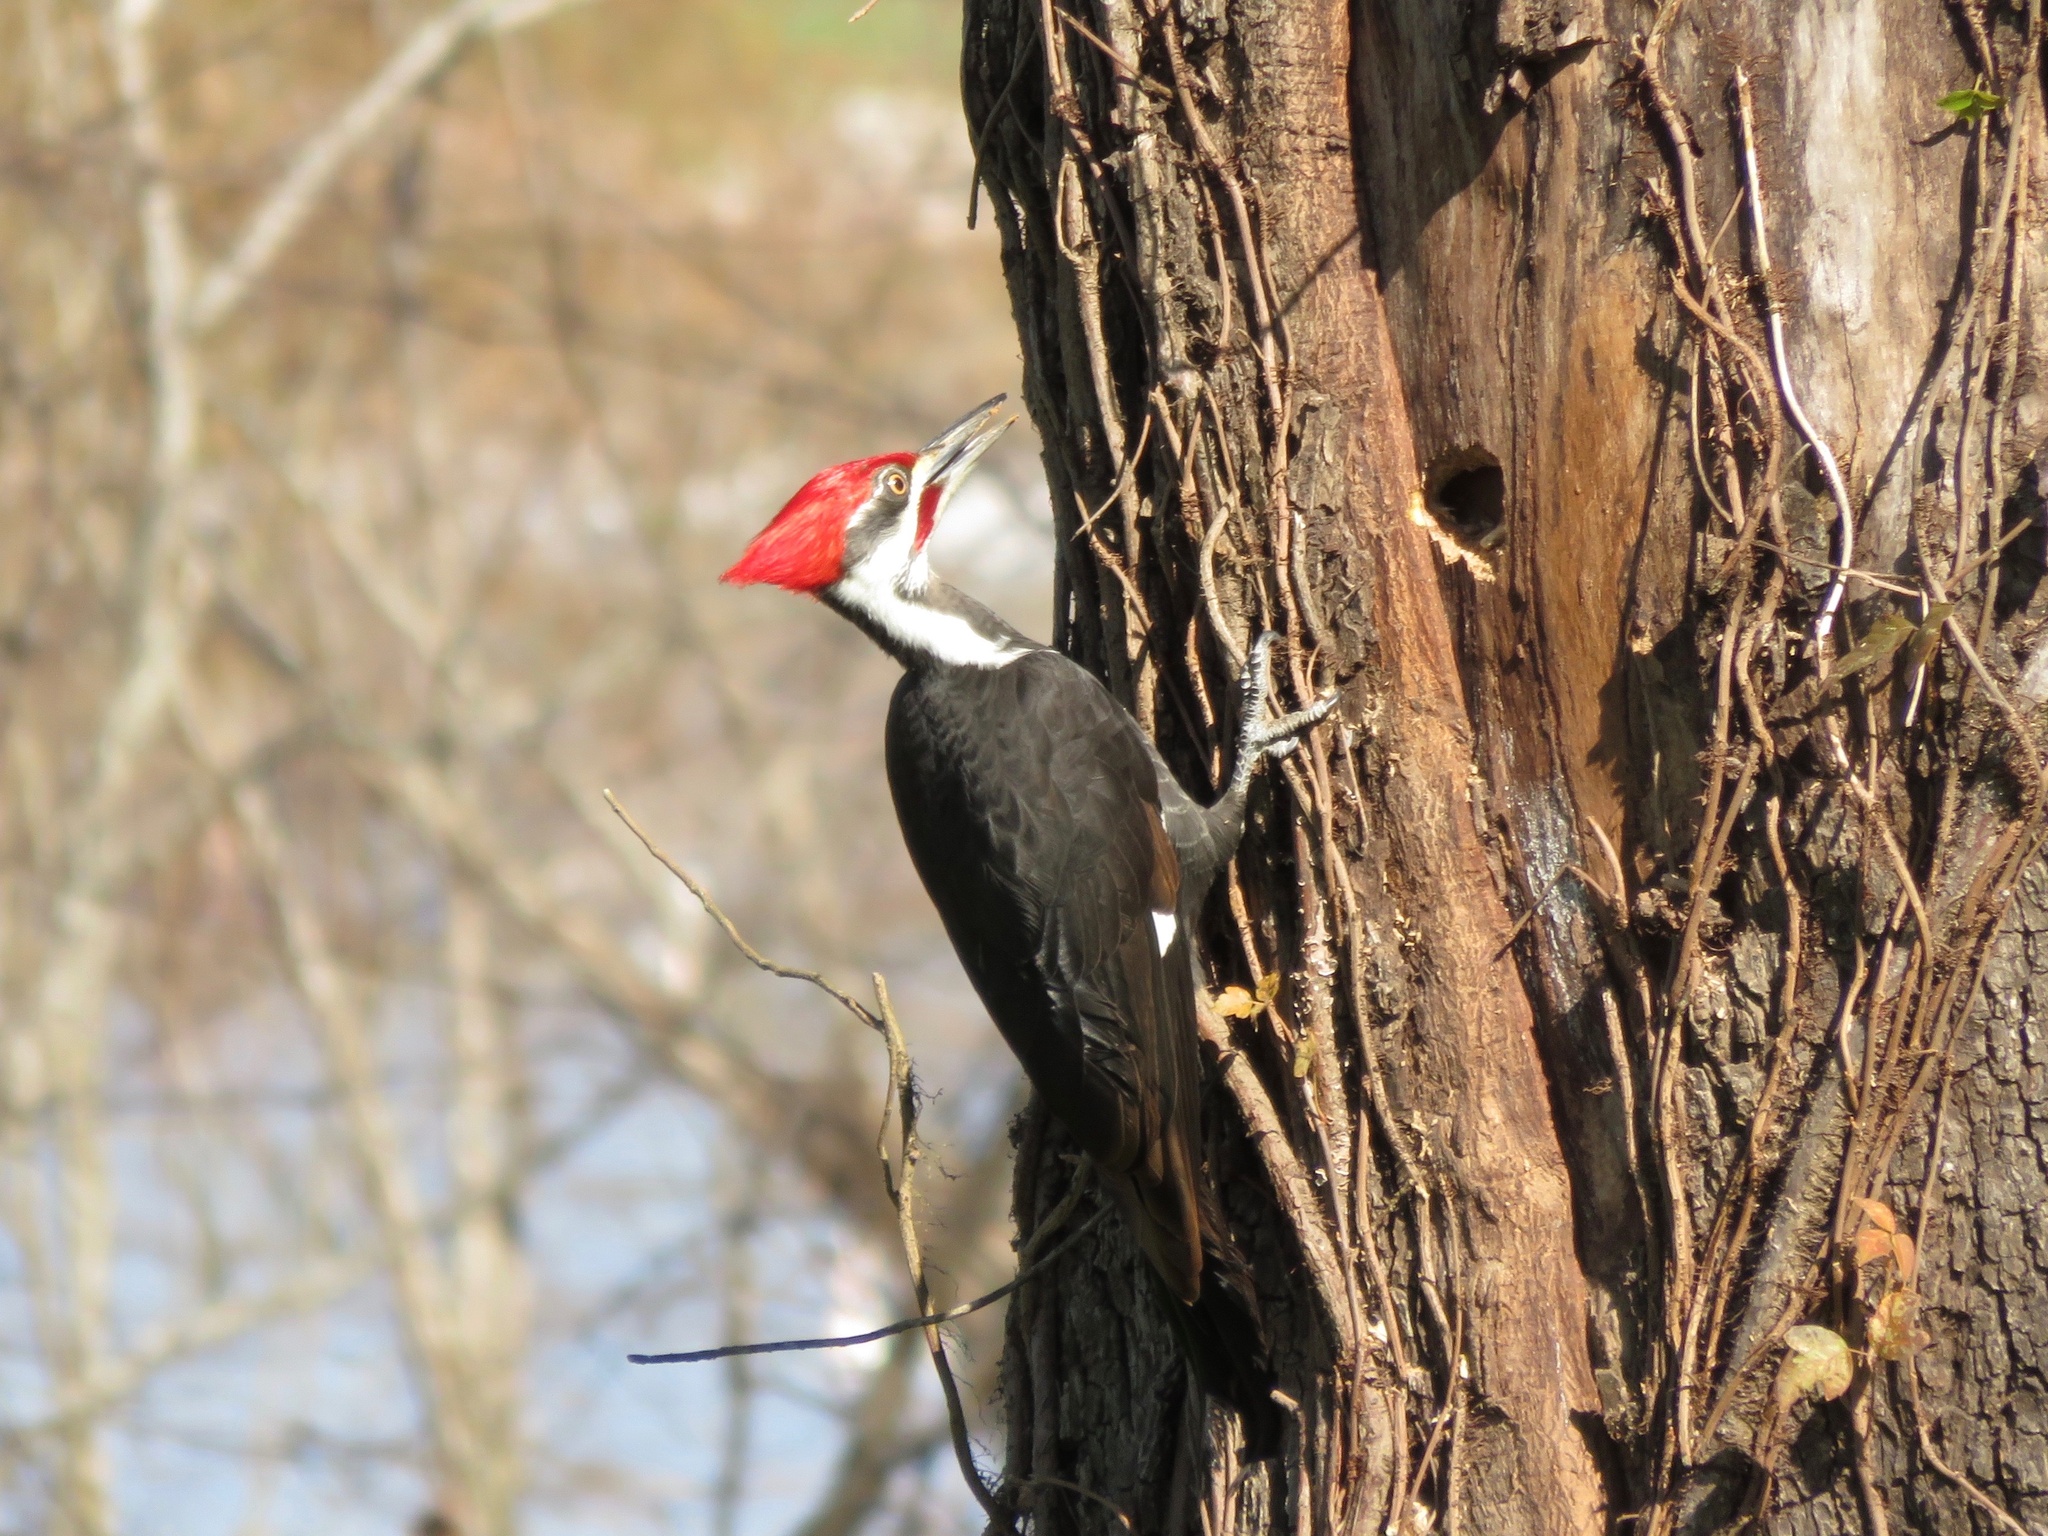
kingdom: Animalia
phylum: Chordata
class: Aves
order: Piciformes
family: Picidae
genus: Dryocopus
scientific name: Dryocopus pileatus
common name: Pileated woodpecker
